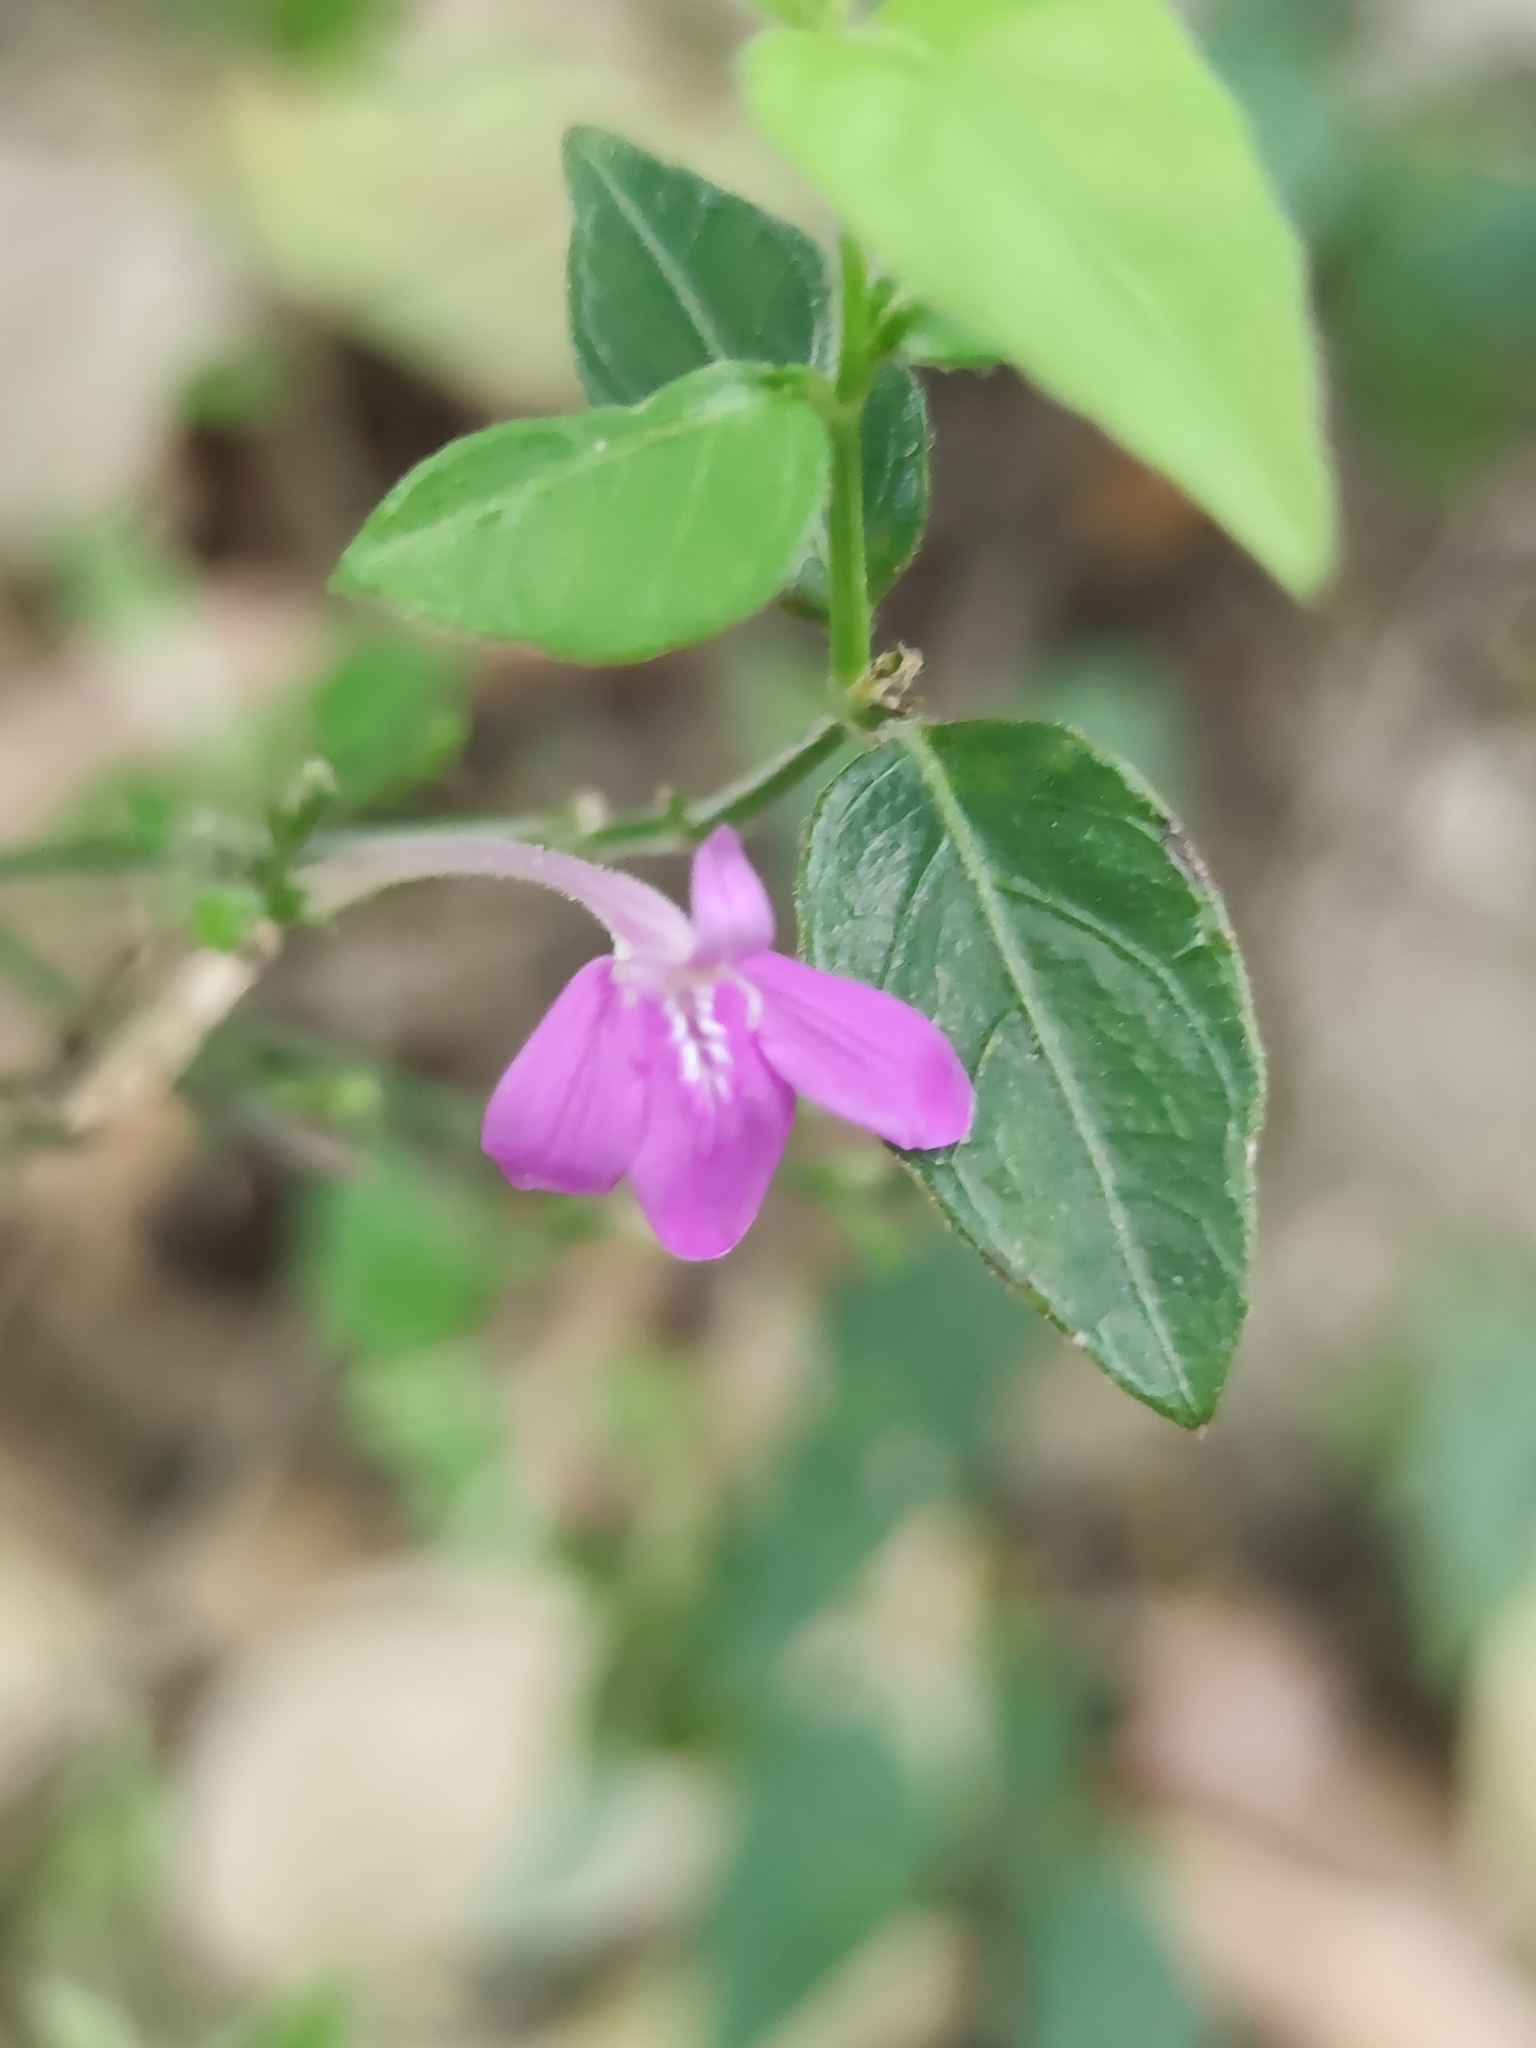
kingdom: Plantae
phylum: Tracheophyta
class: Magnoliopsida
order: Lamiales
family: Acanthaceae
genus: Justicia
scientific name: Justicia hintoniorum
